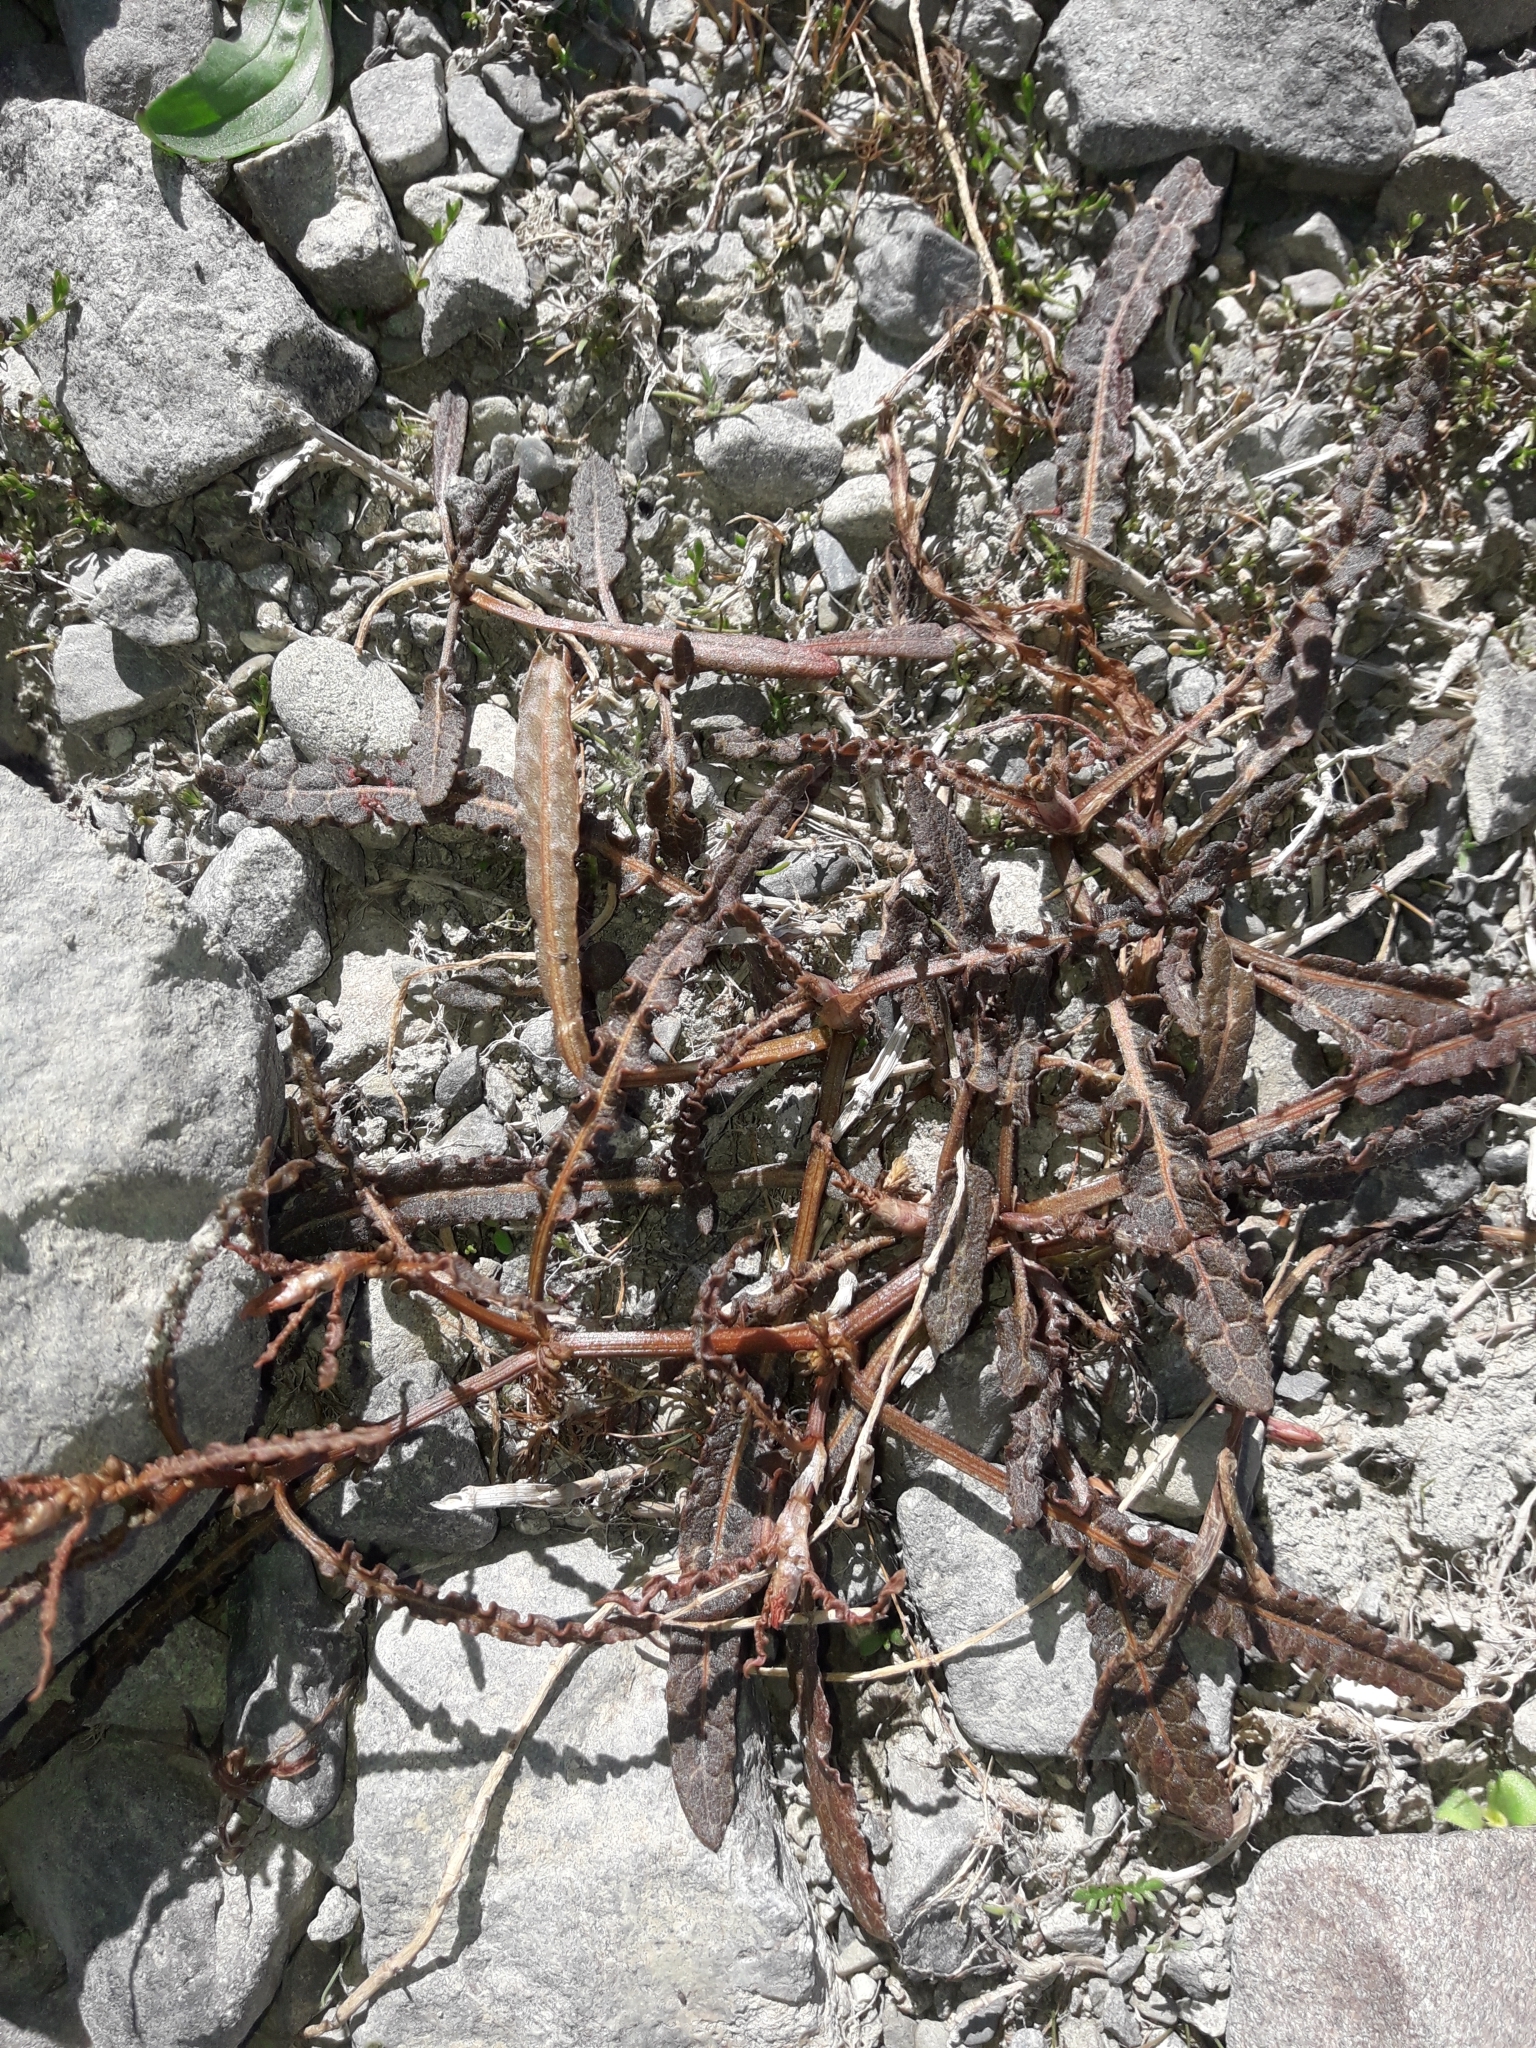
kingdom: Plantae
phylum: Tracheophyta
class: Magnoliopsida
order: Caryophyllales
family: Polygonaceae
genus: Rumex
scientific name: Rumex flexuosus
